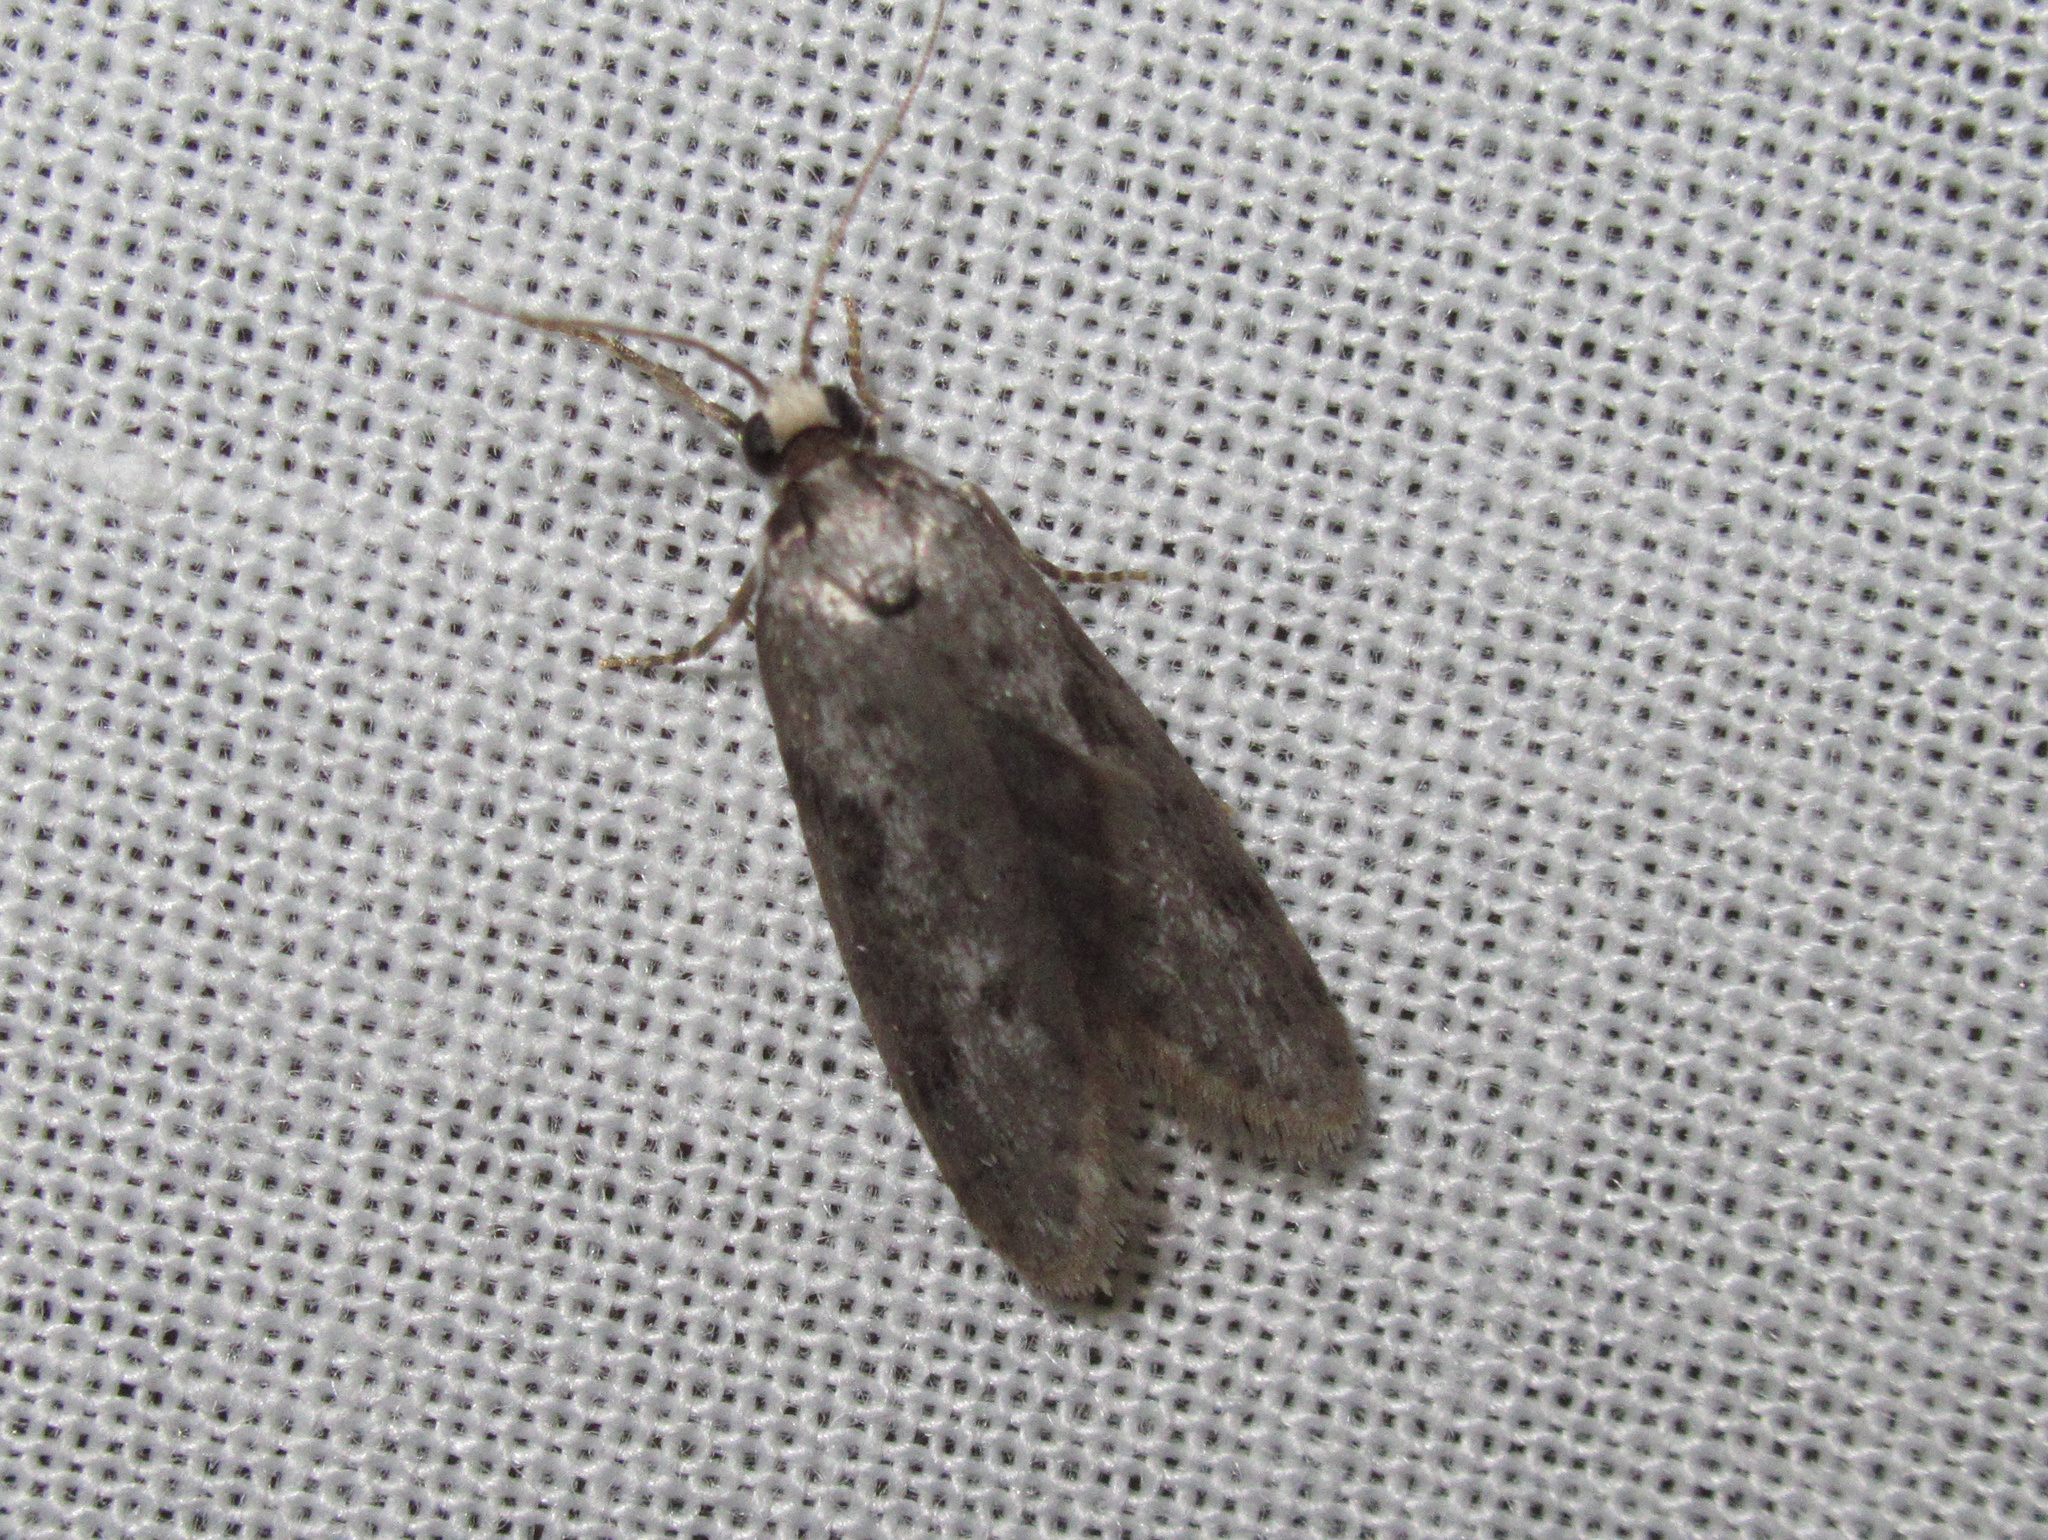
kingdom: Animalia
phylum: Arthropoda
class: Insecta
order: Lepidoptera
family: Psychidae
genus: Lepidoscia
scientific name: Lepidoscia protorna
